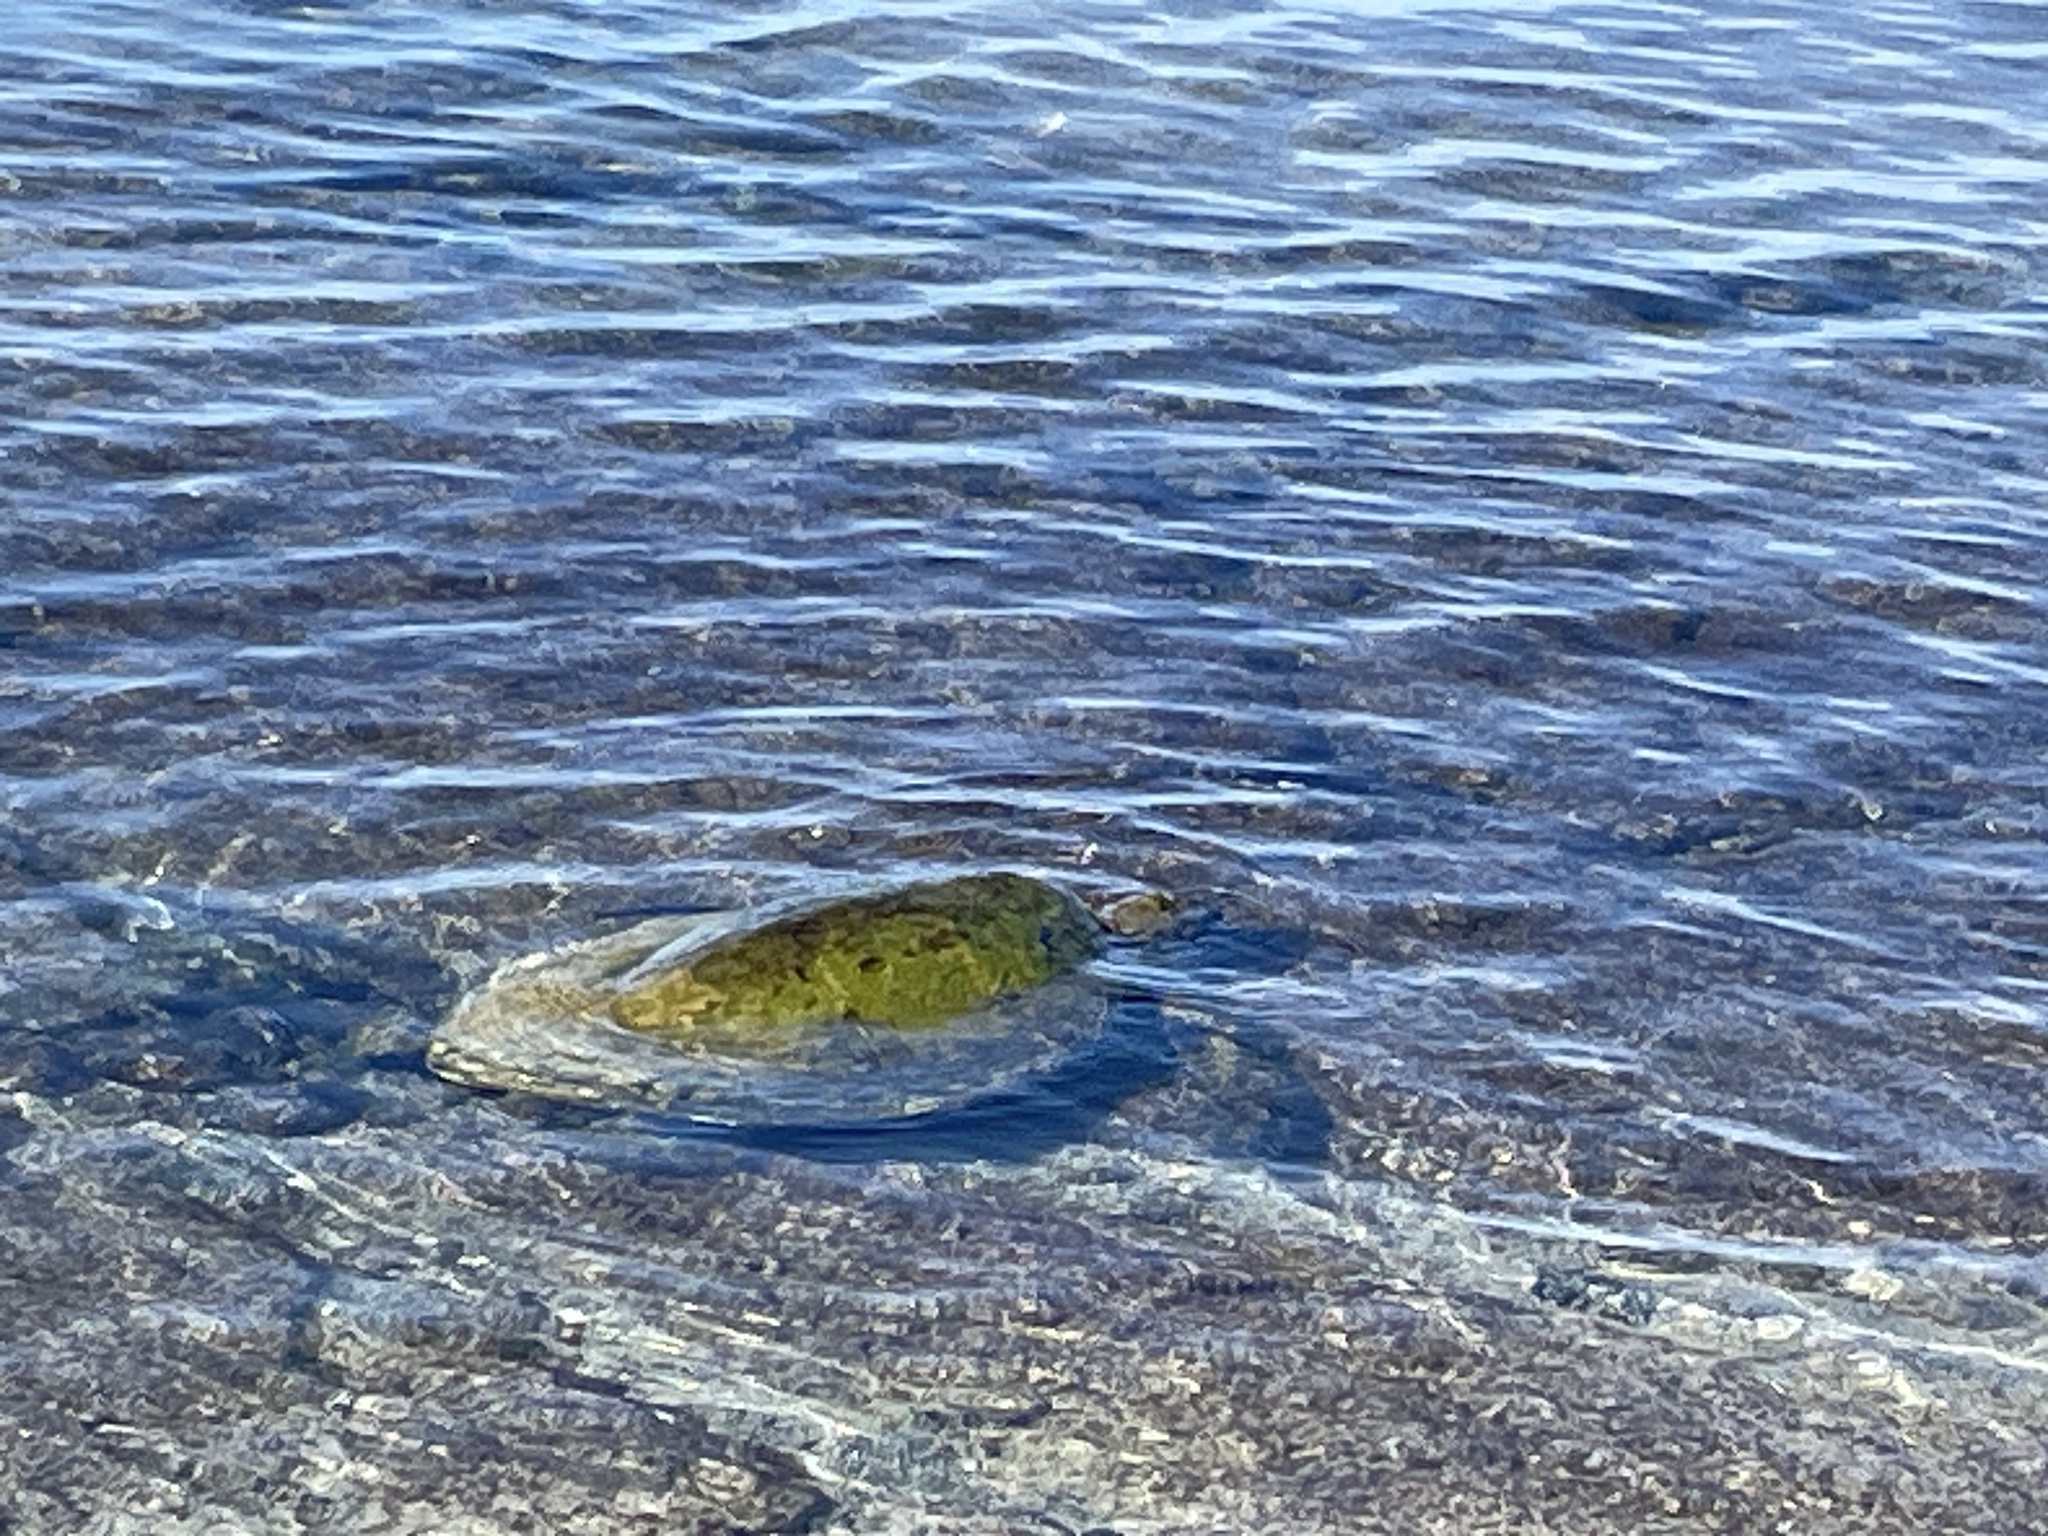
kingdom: Animalia
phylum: Chordata
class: Testudines
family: Cheloniidae
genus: Chelonia
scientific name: Chelonia mydas
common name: Green turtle
